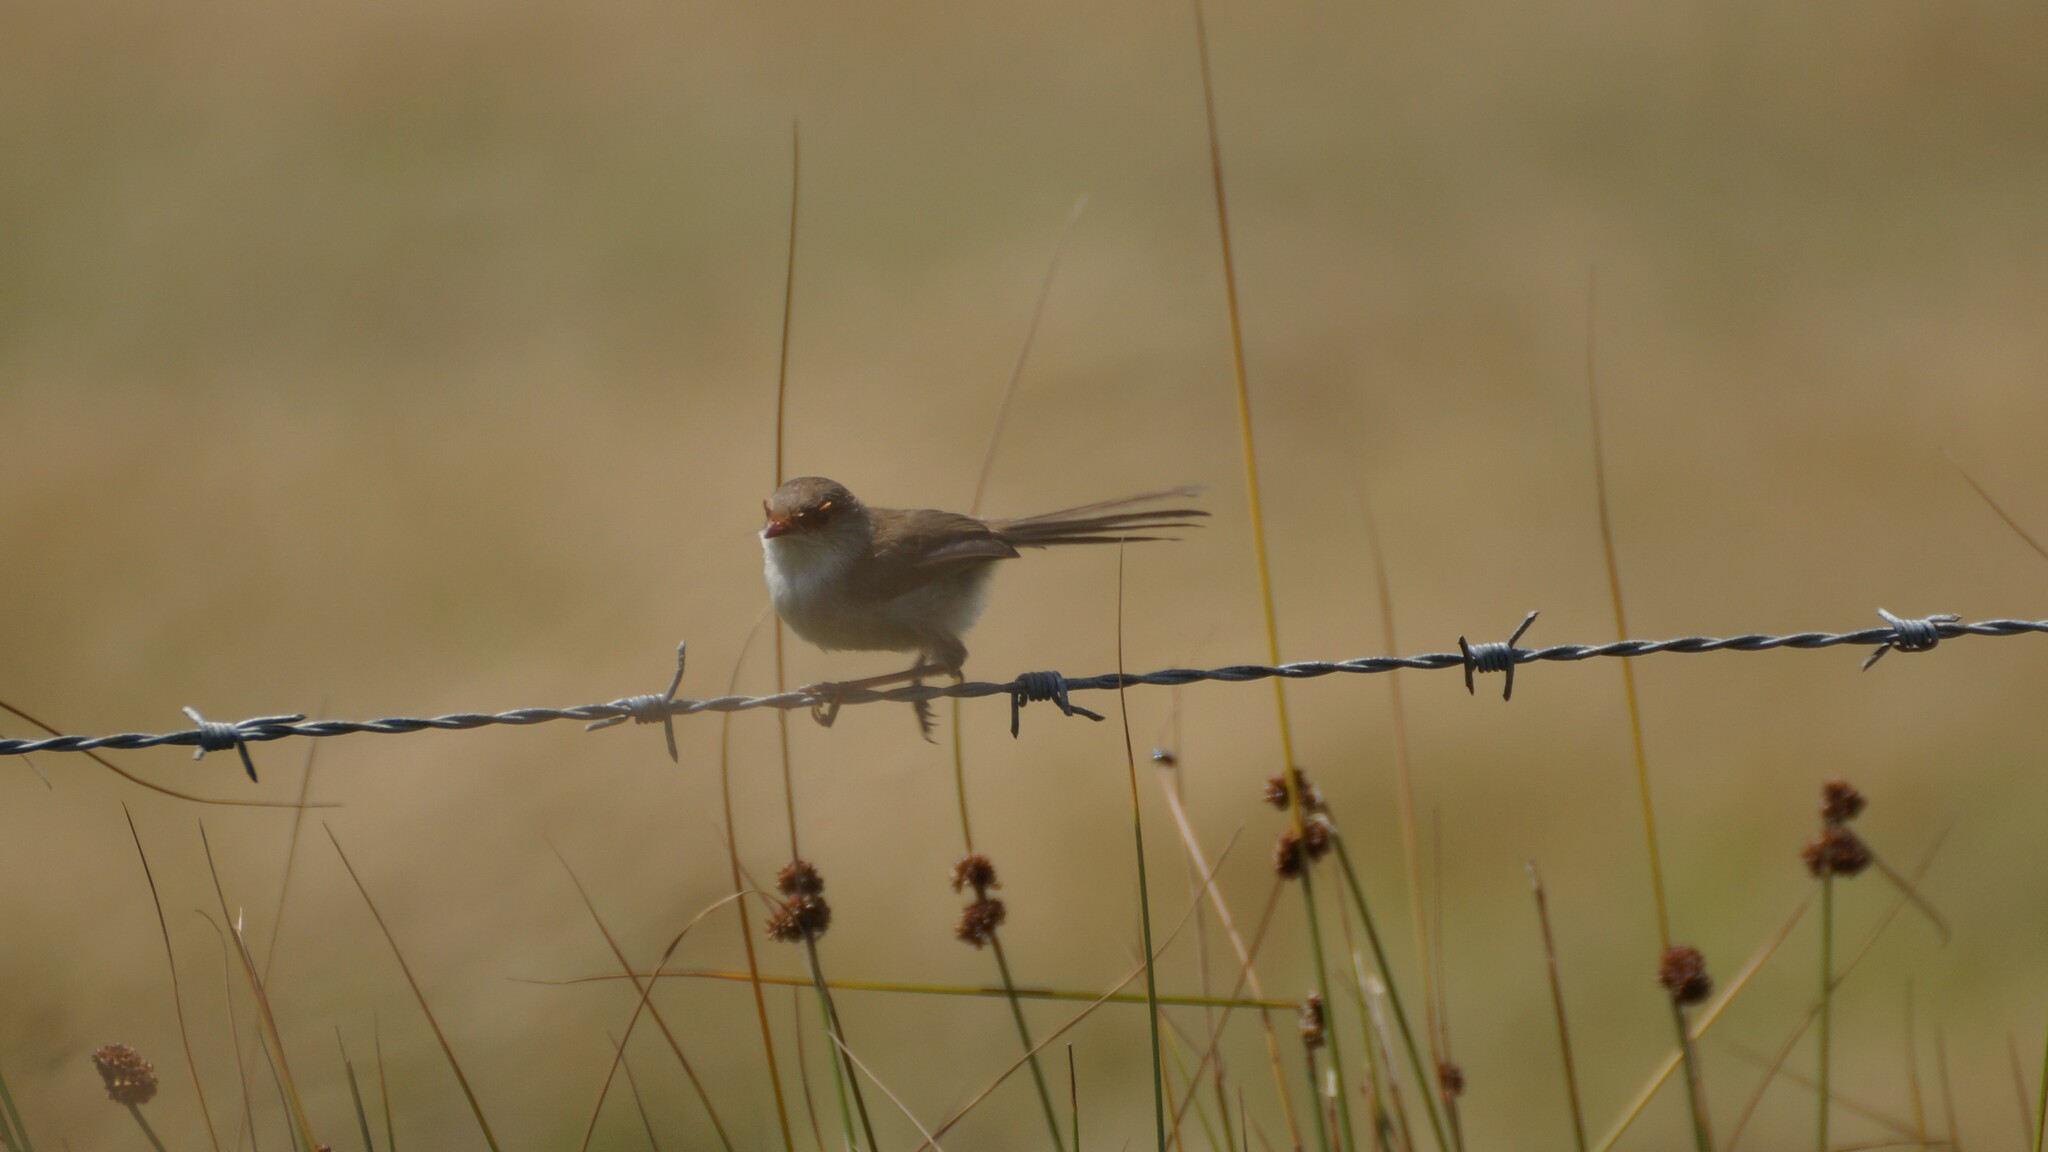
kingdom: Animalia
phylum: Chordata
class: Aves
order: Passeriformes
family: Maluridae
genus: Malurus
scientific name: Malurus cyaneus
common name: Superb fairywren
